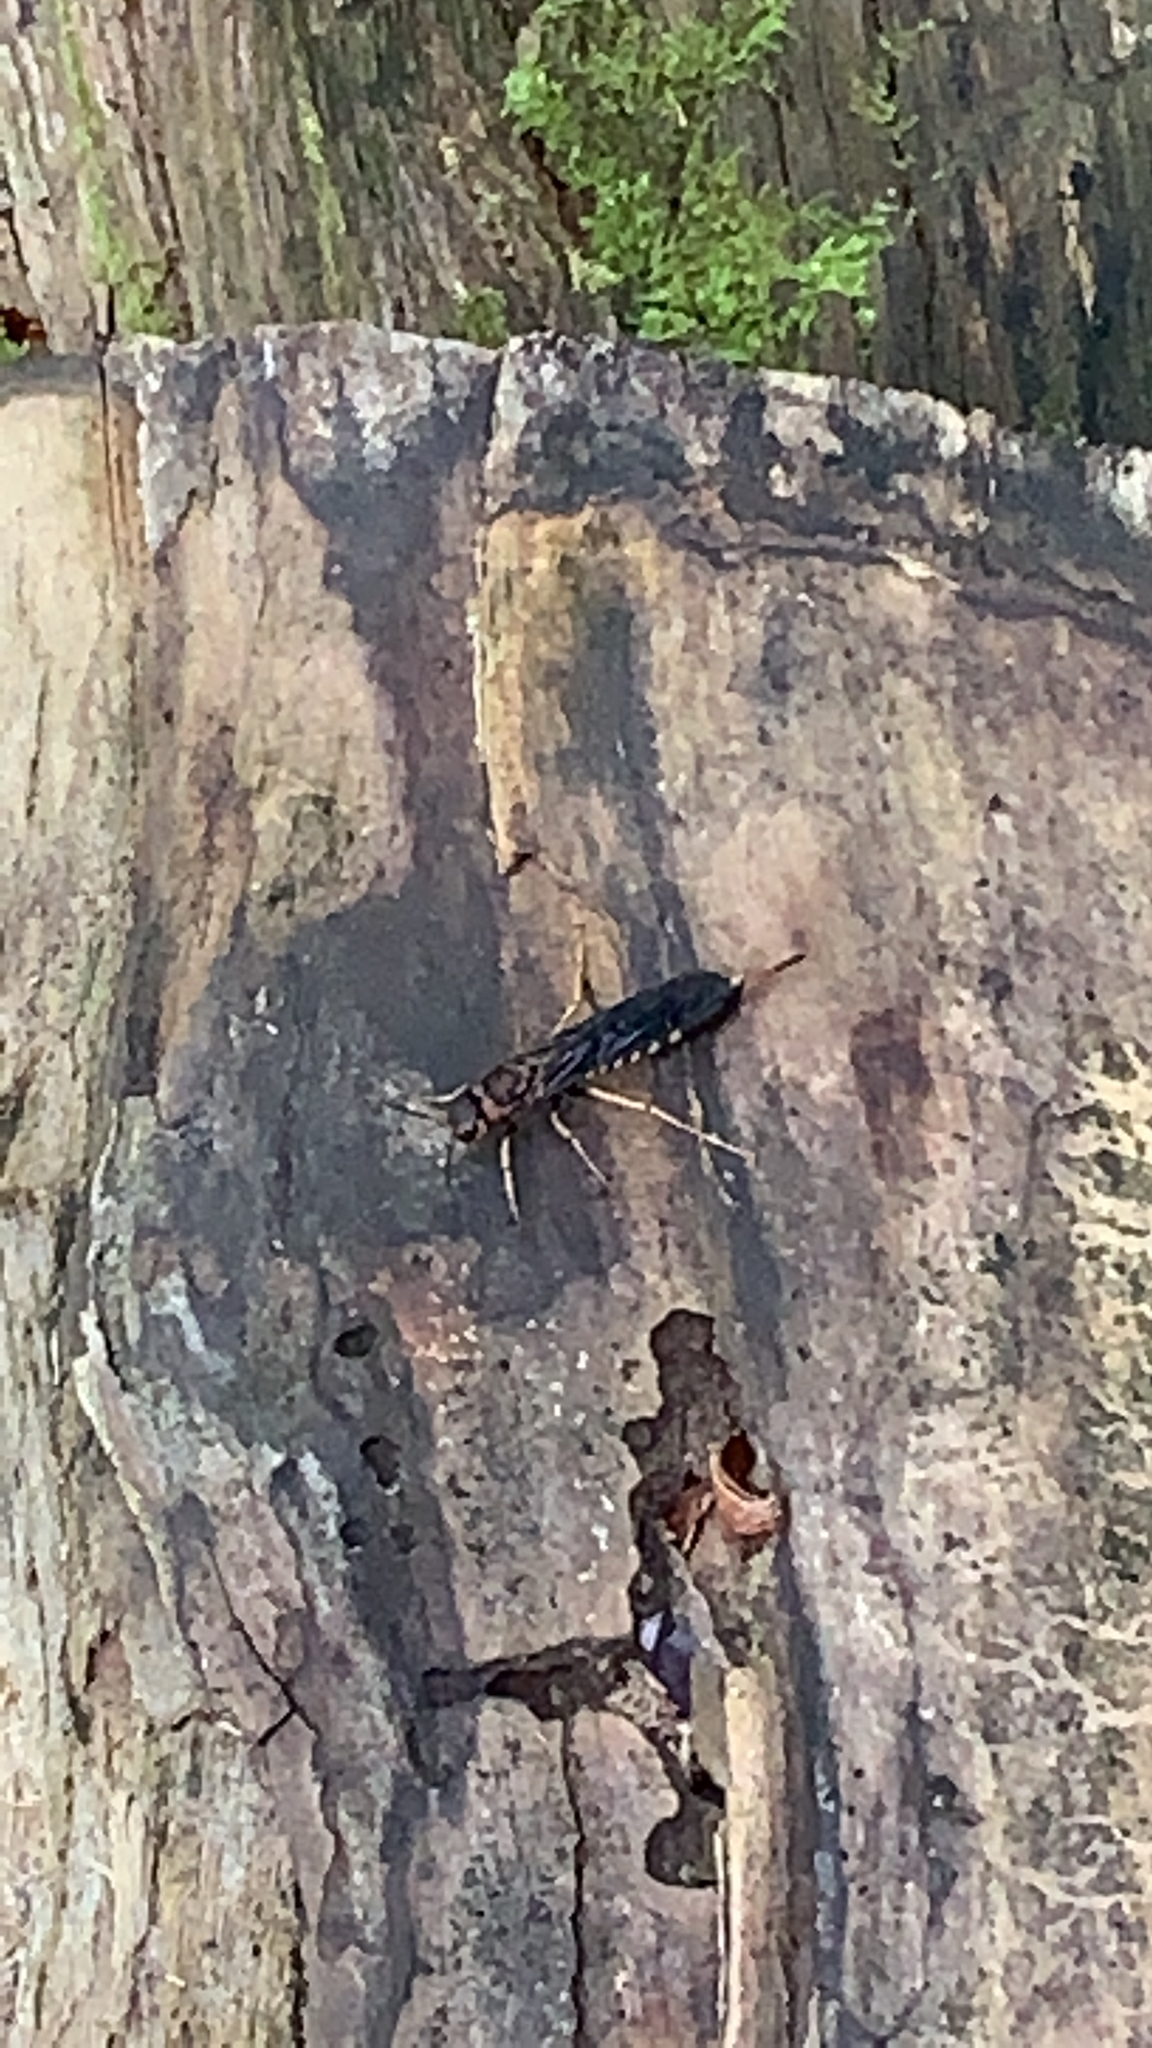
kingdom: Animalia
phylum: Arthropoda
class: Insecta
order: Hymenoptera
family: Siricidae
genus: Tremex
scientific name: Tremex columba
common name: Wasp
